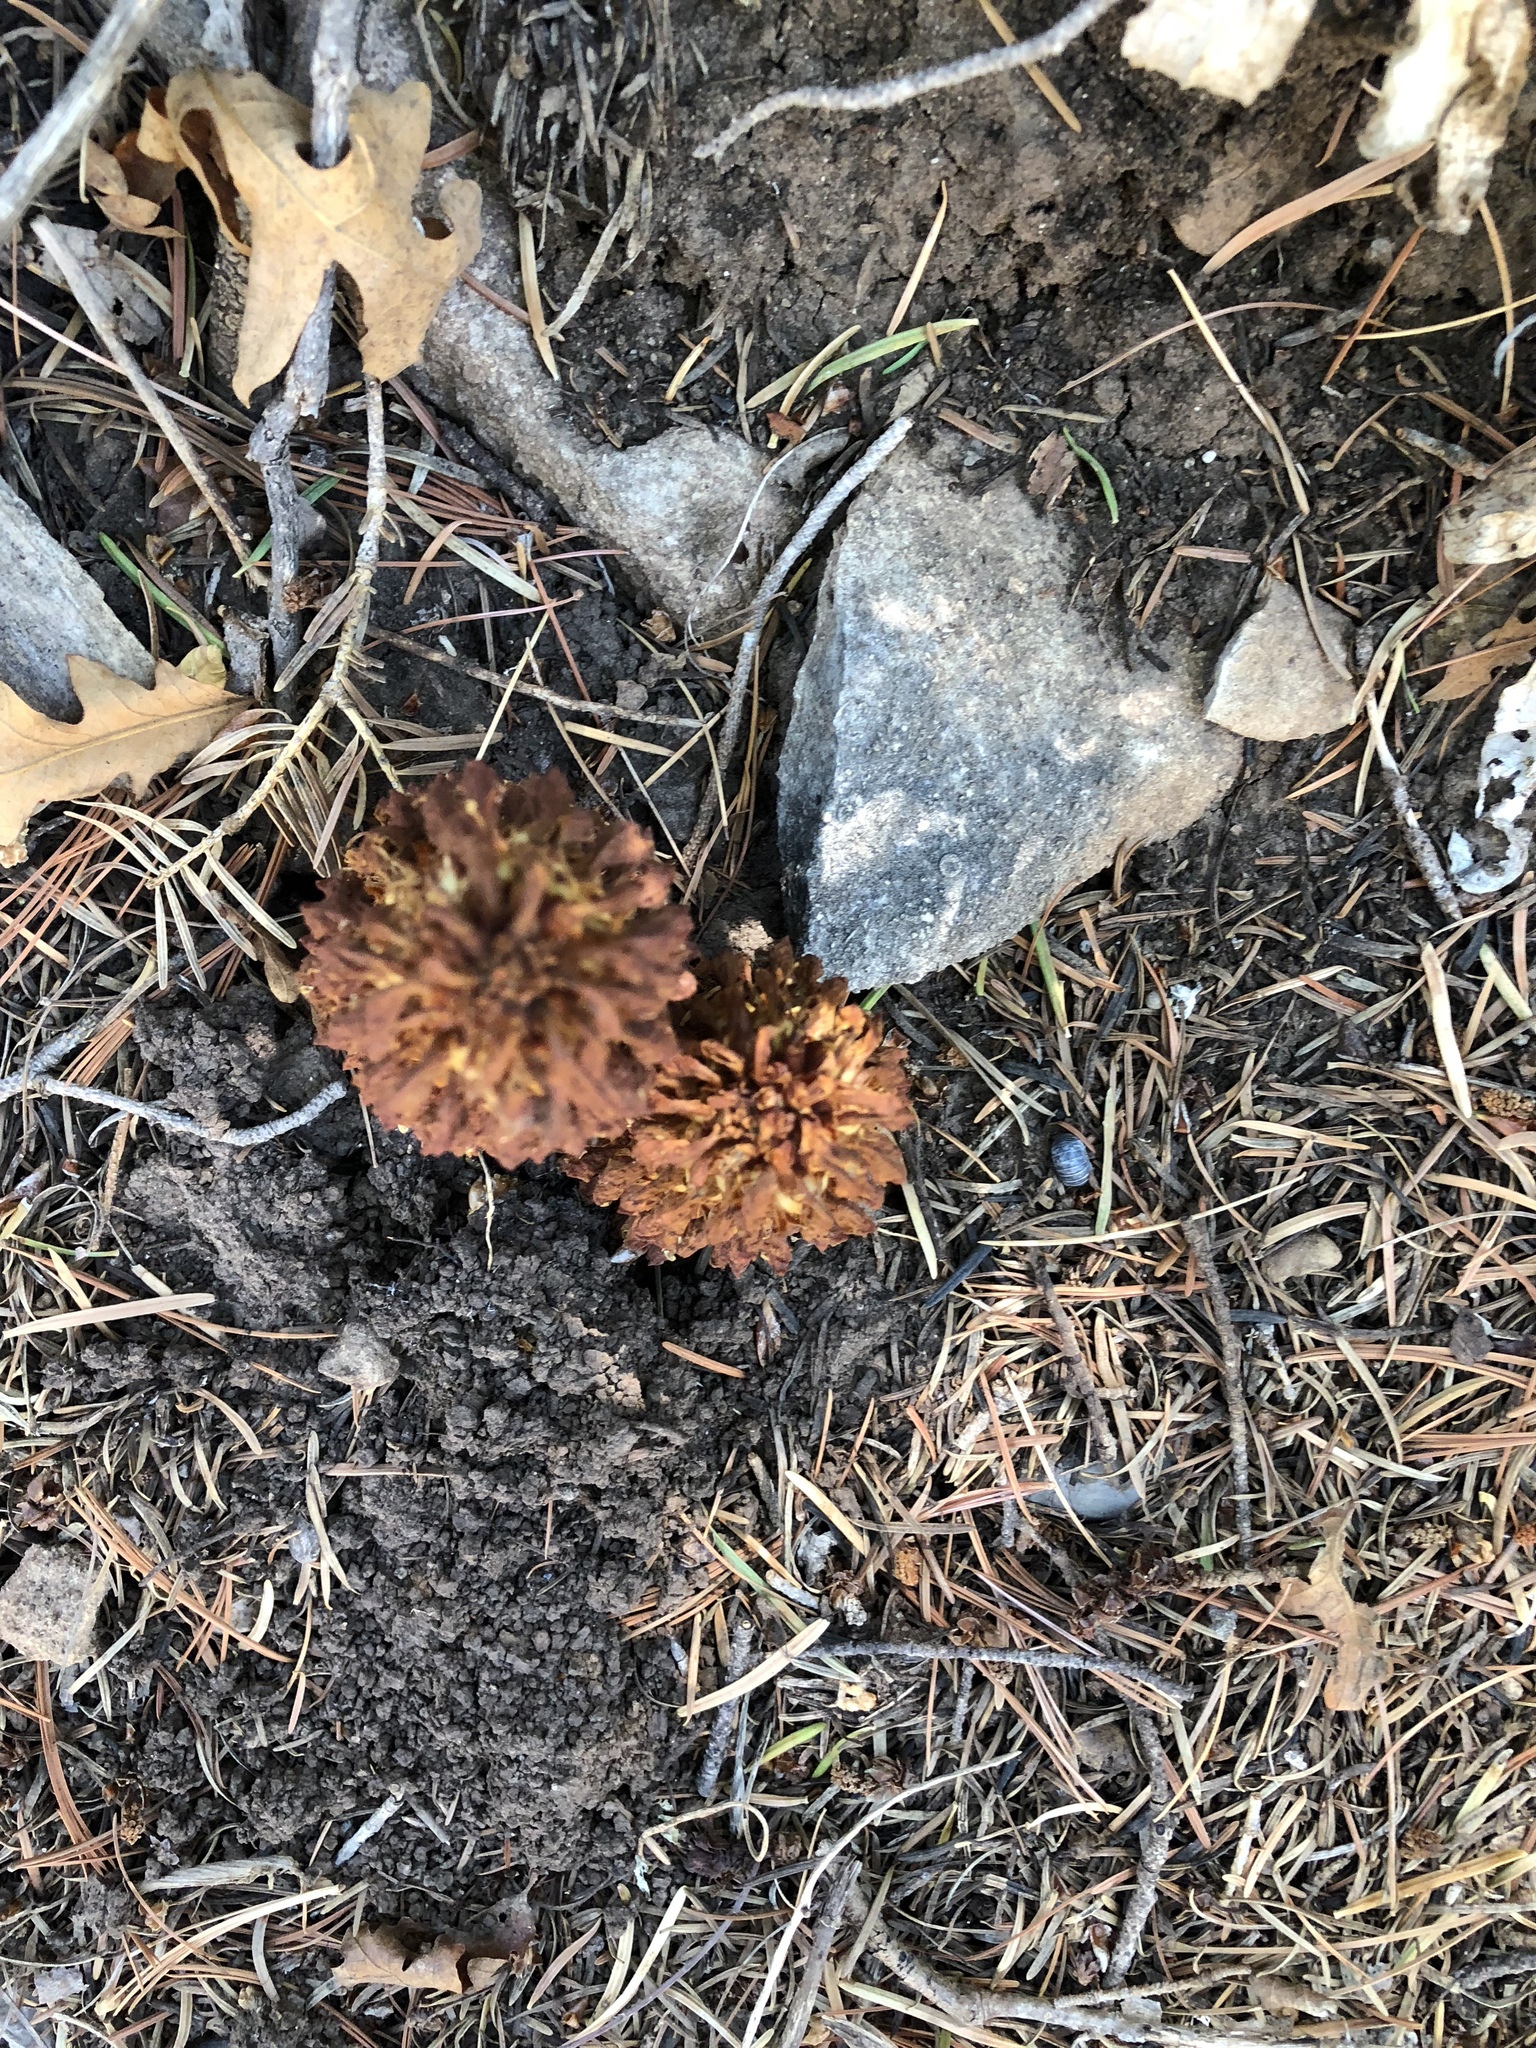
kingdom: Plantae
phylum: Tracheophyta
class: Magnoliopsida
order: Lamiales
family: Orobanchaceae
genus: Conopholis
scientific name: Conopholis alpina
